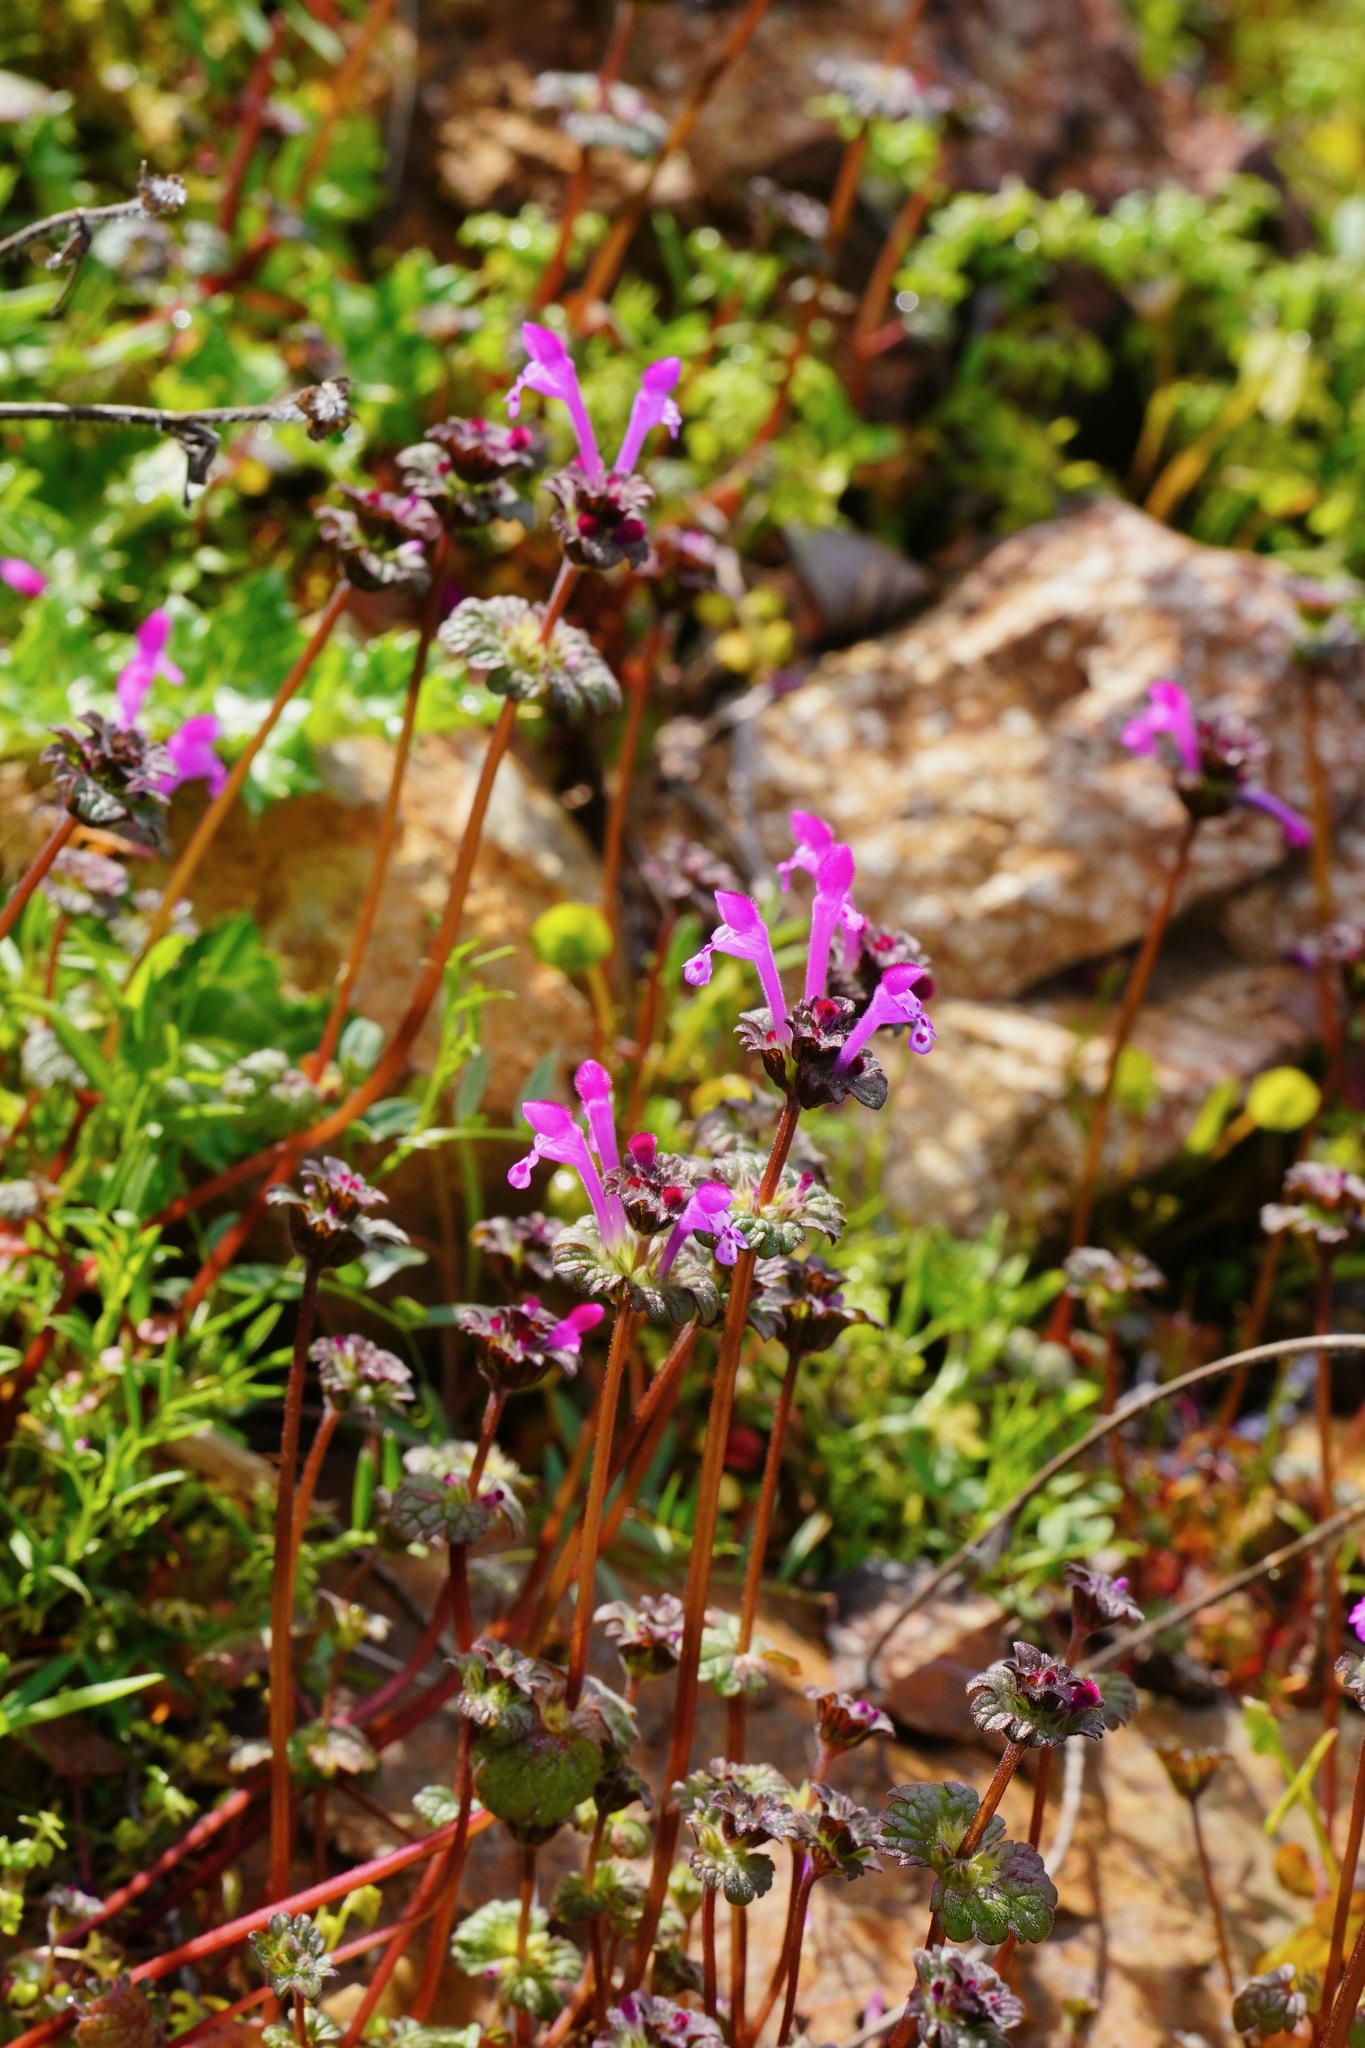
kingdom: Plantae
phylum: Tracheophyta
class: Magnoliopsida
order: Lamiales
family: Lamiaceae
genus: Lamium
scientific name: Lamium amplexicaule
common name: Henbit dead-nettle
